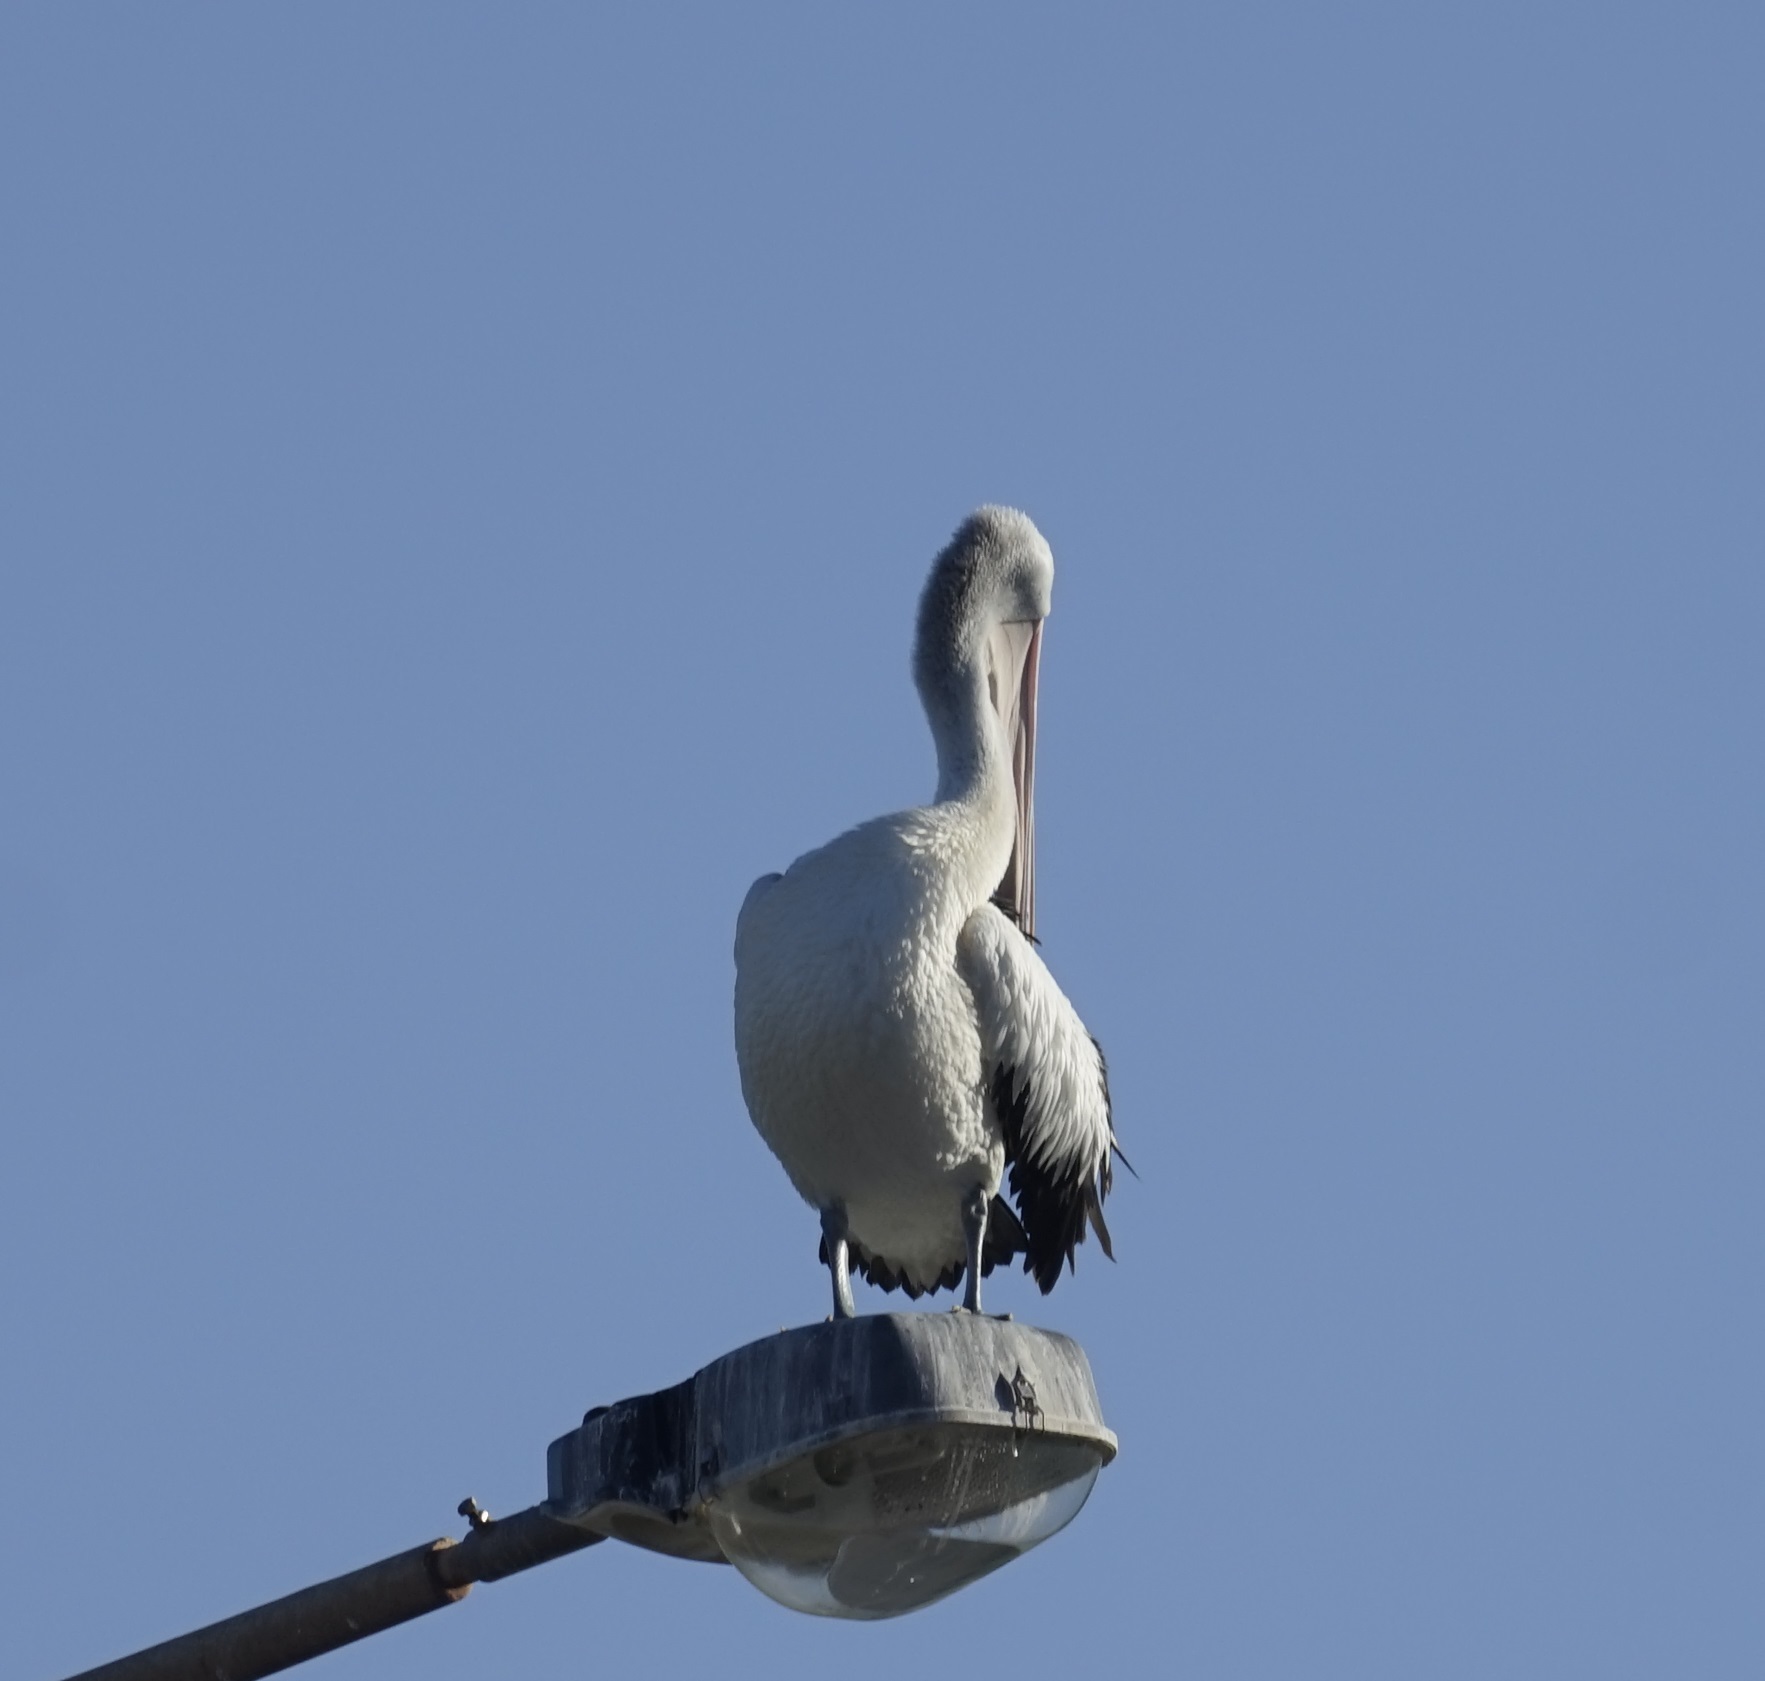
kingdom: Animalia
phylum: Chordata
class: Aves
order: Pelecaniformes
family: Pelecanidae
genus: Pelecanus
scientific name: Pelecanus conspicillatus
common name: Australian pelican
